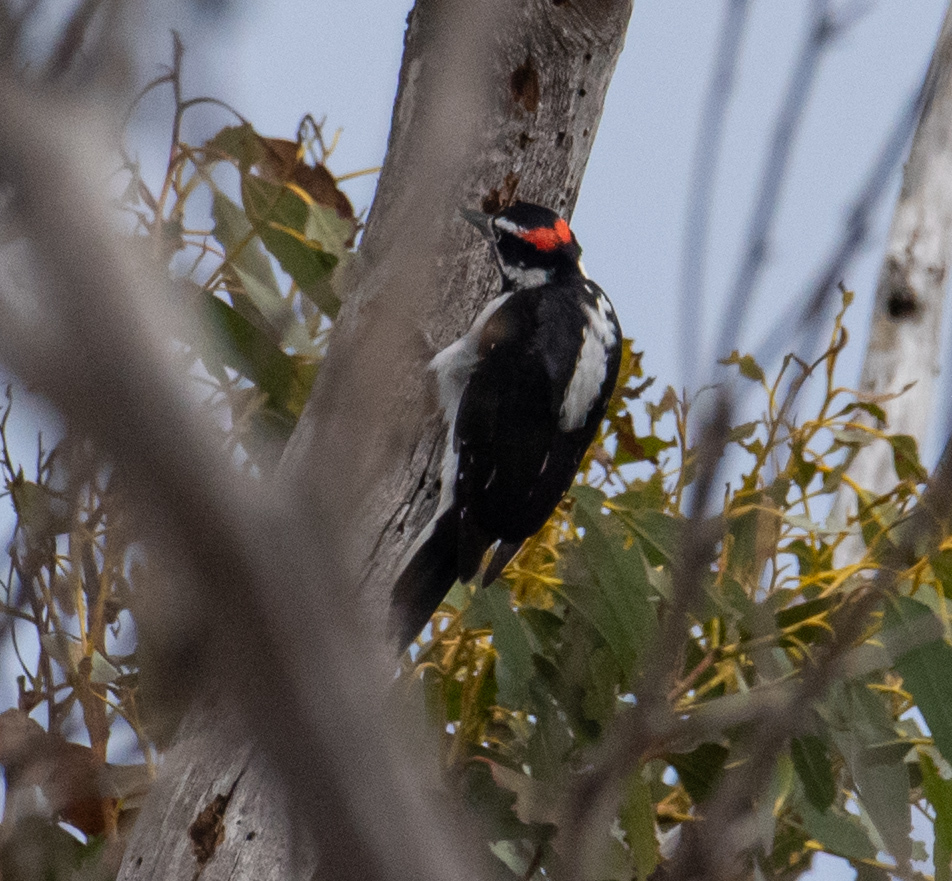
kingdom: Animalia
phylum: Chordata
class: Aves
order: Piciformes
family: Picidae
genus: Dryobates
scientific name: Dryobates pubescens
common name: Downy woodpecker
